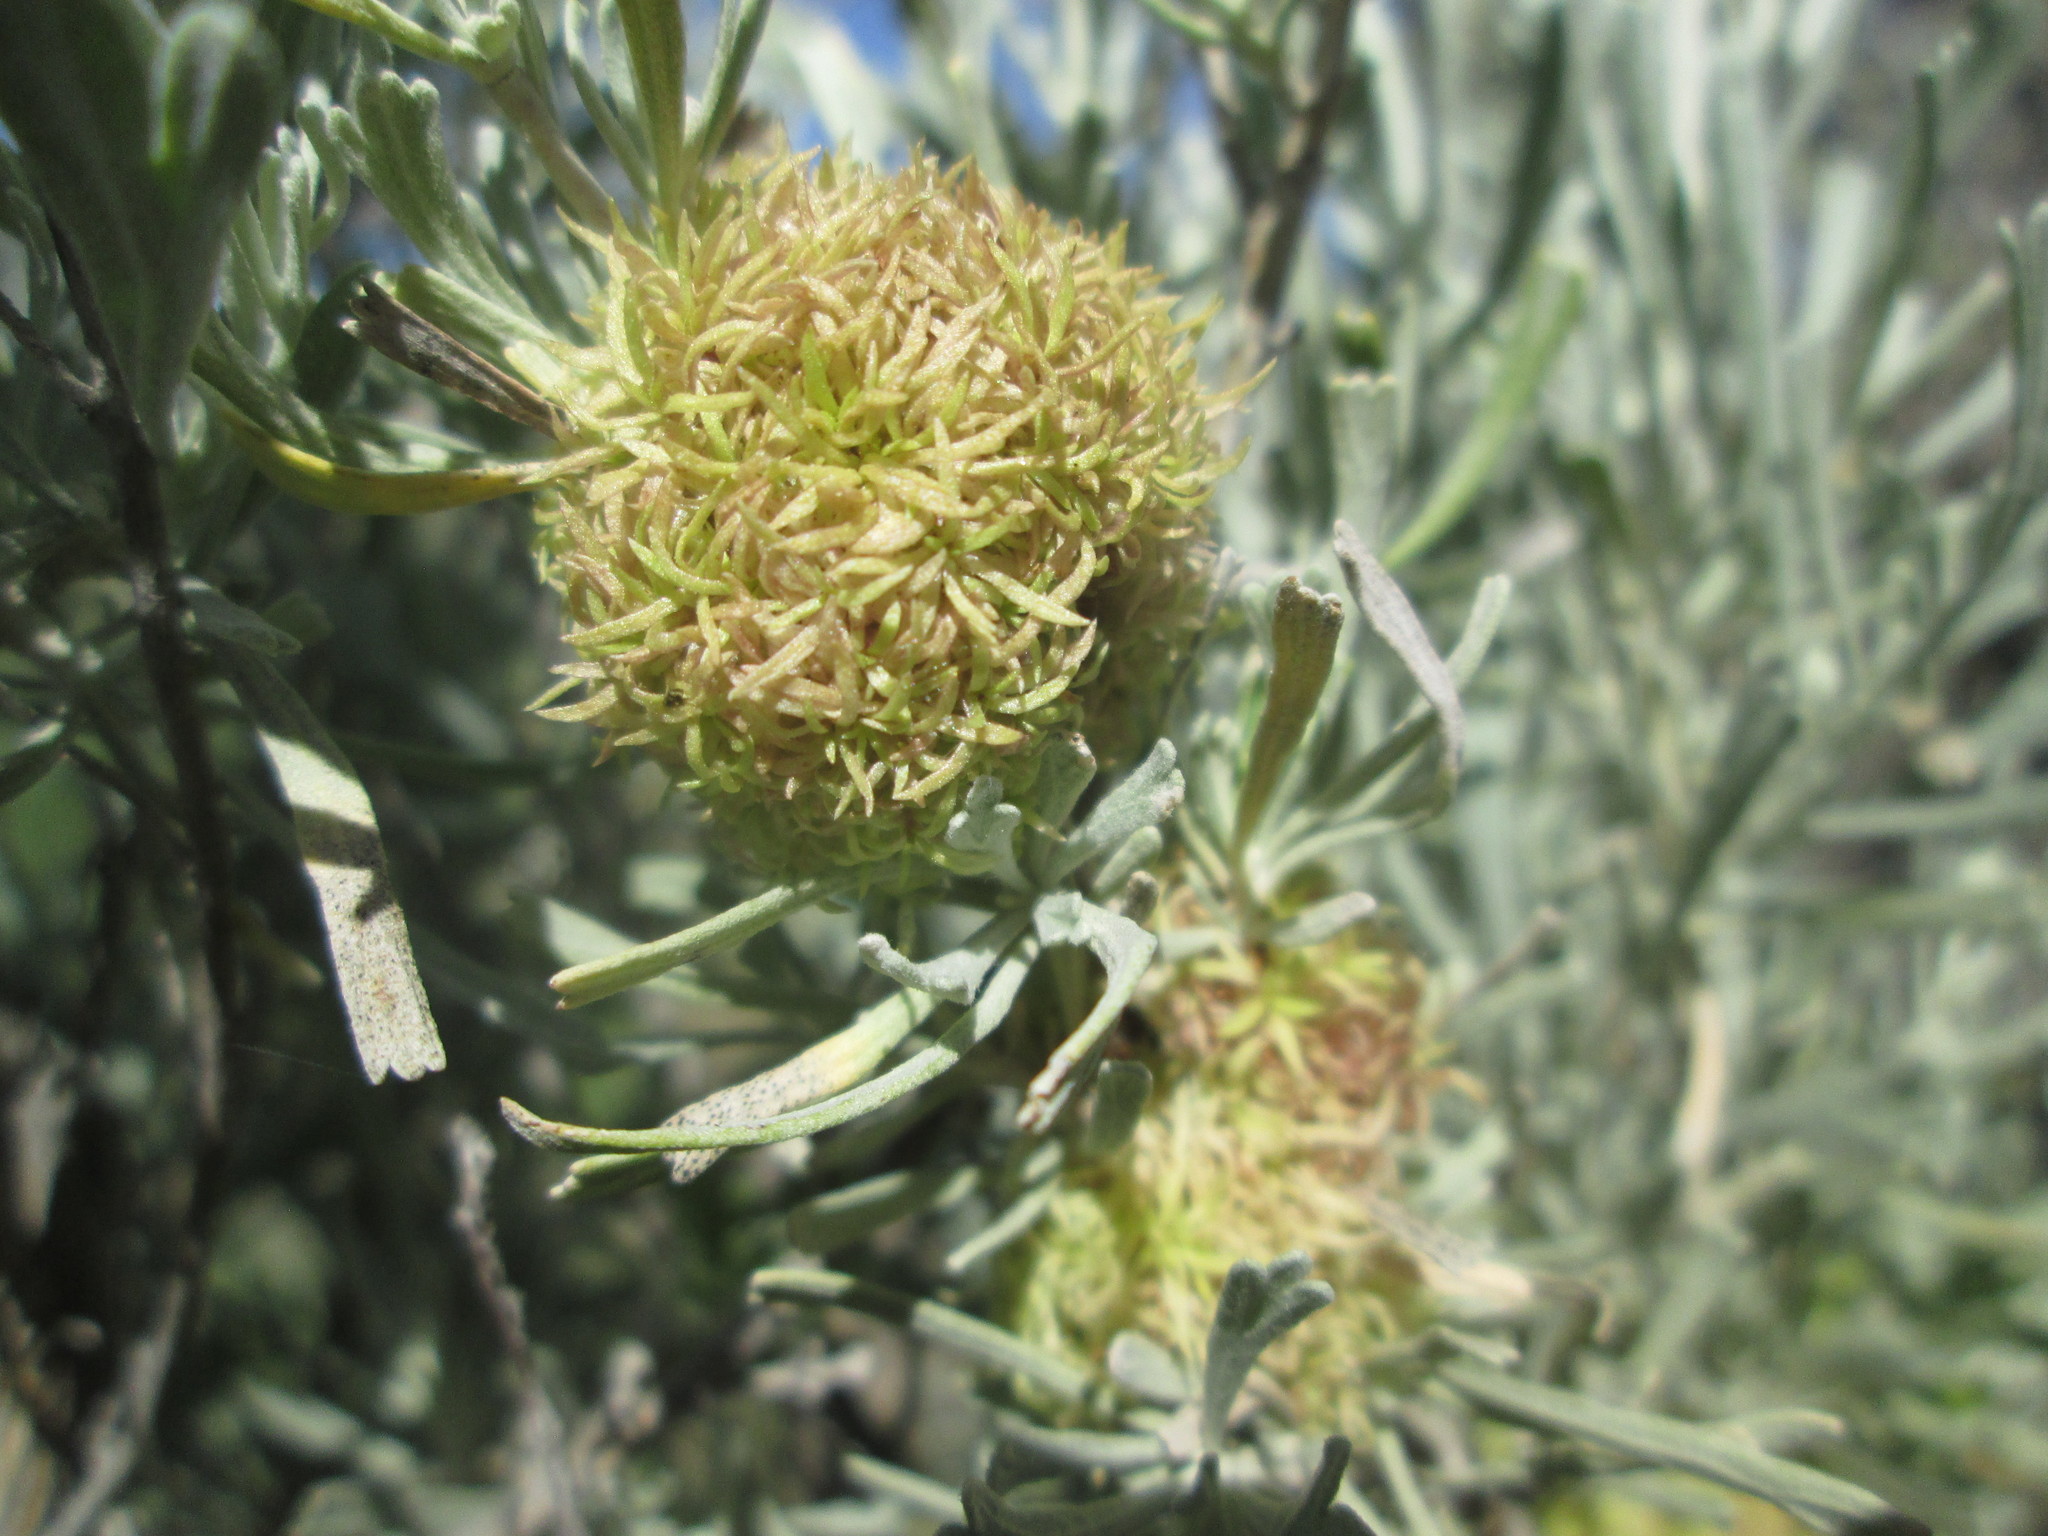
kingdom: Animalia
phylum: Arthropoda
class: Insecta
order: Diptera
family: Cecidomyiidae
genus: Rhopalomyia
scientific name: Rhopalomyia medusa
